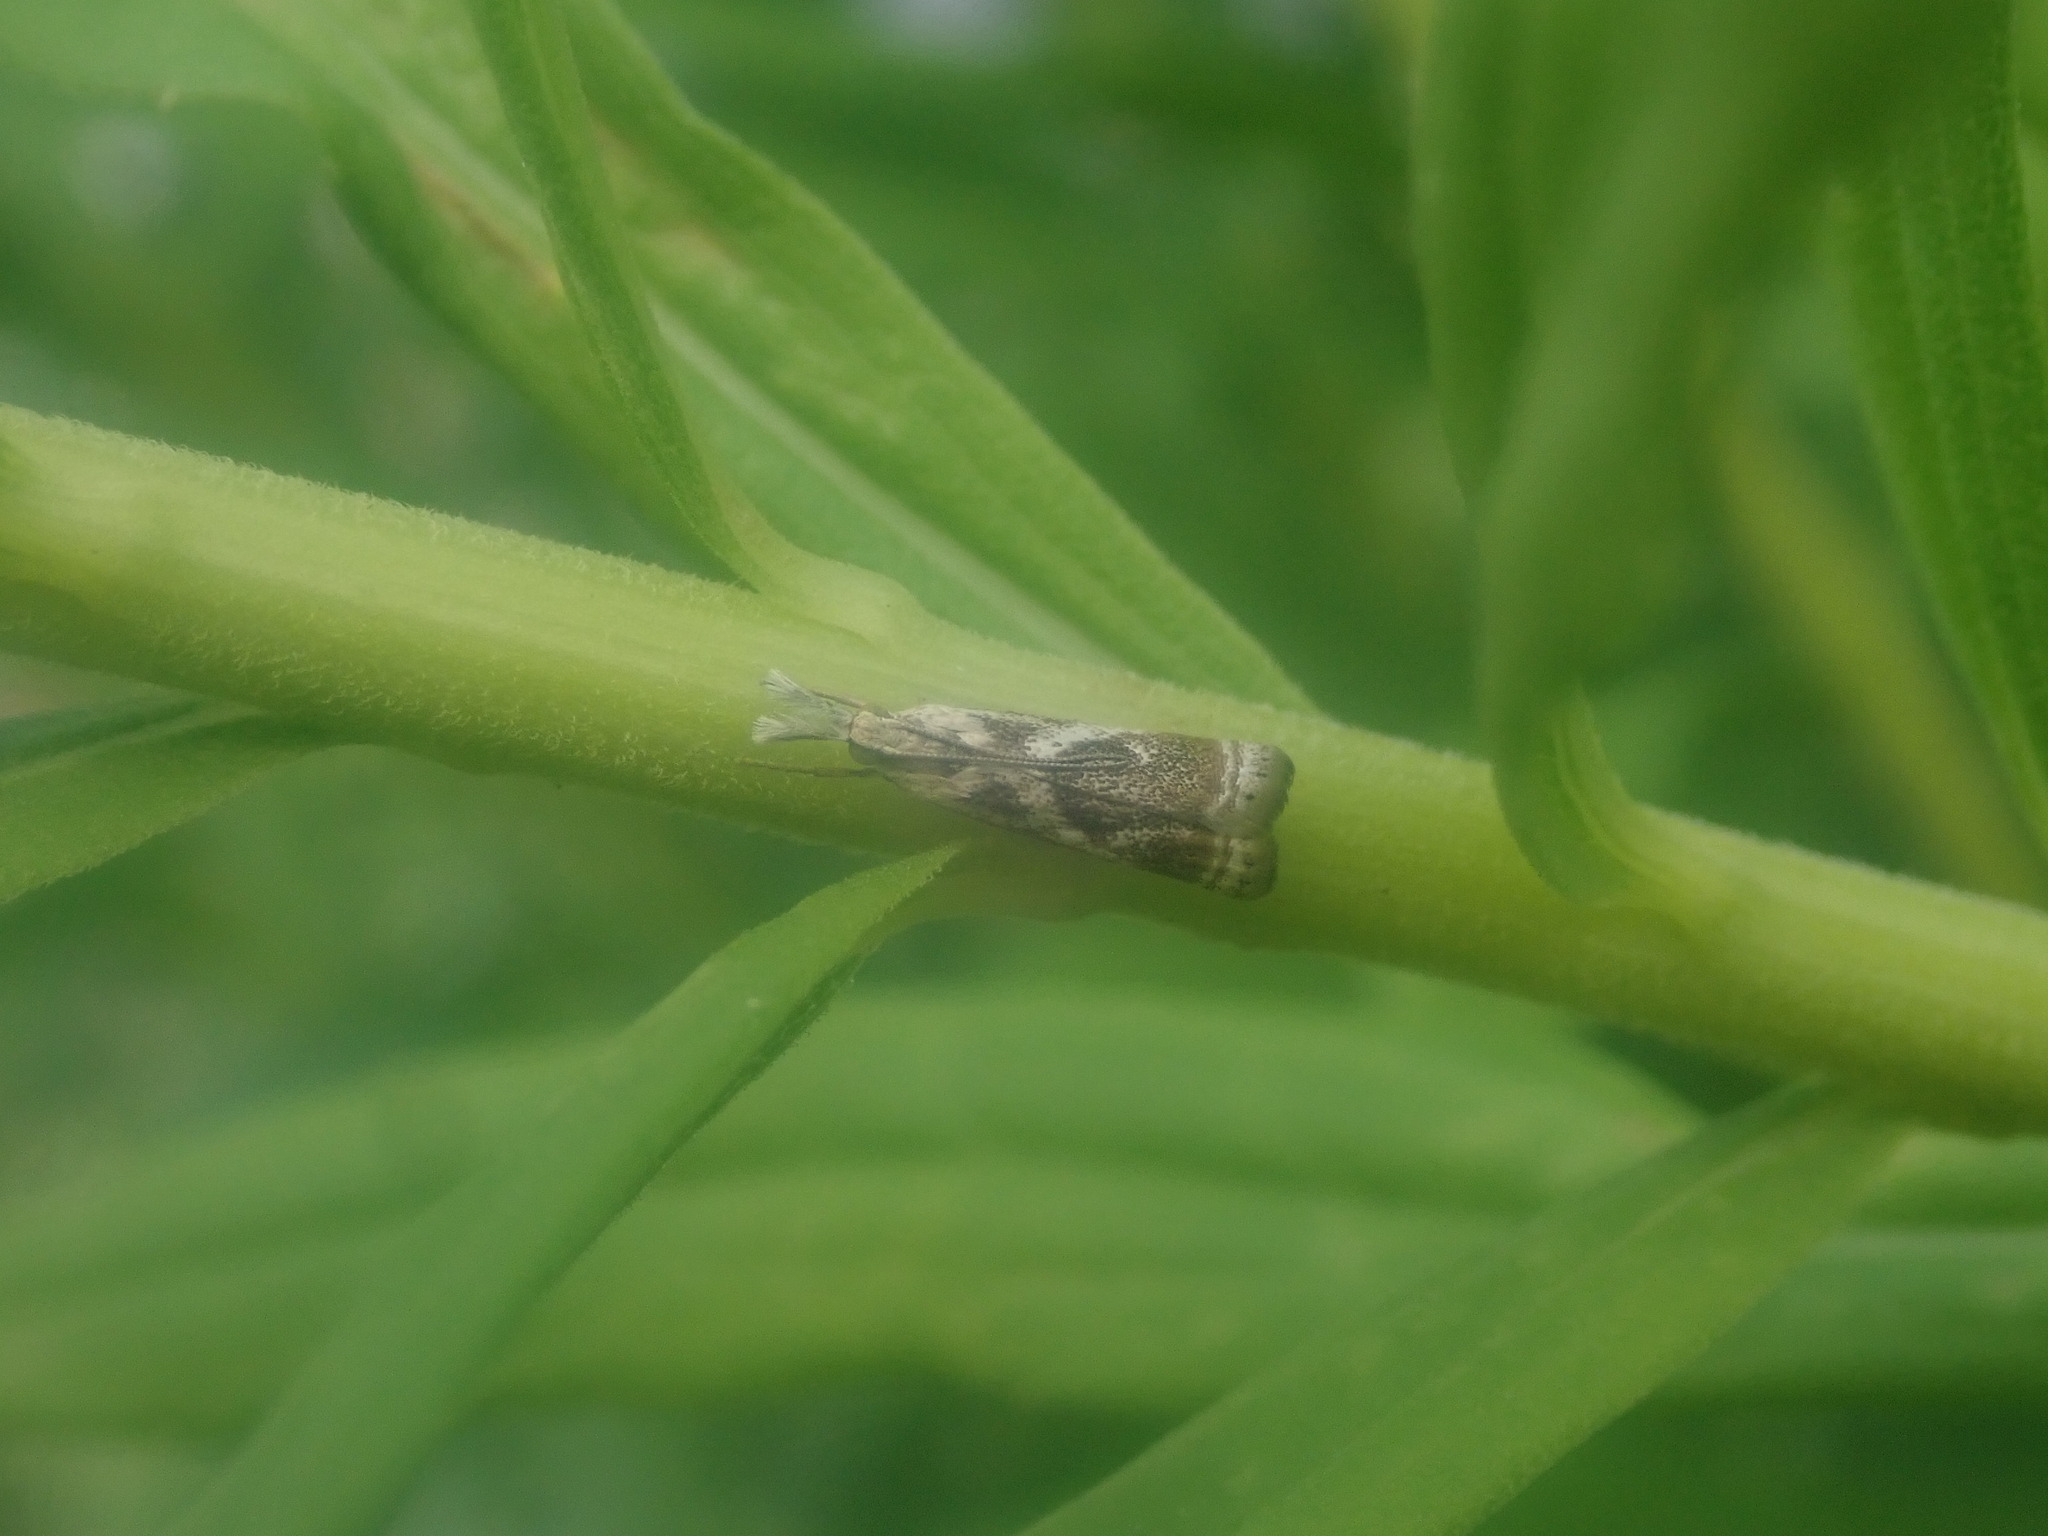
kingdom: Animalia
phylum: Arthropoda
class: Insecta
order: Lepidoptera
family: Crambidae
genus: Microcrambus
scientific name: Microcrambus elegans
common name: Elegant grass-veneer
